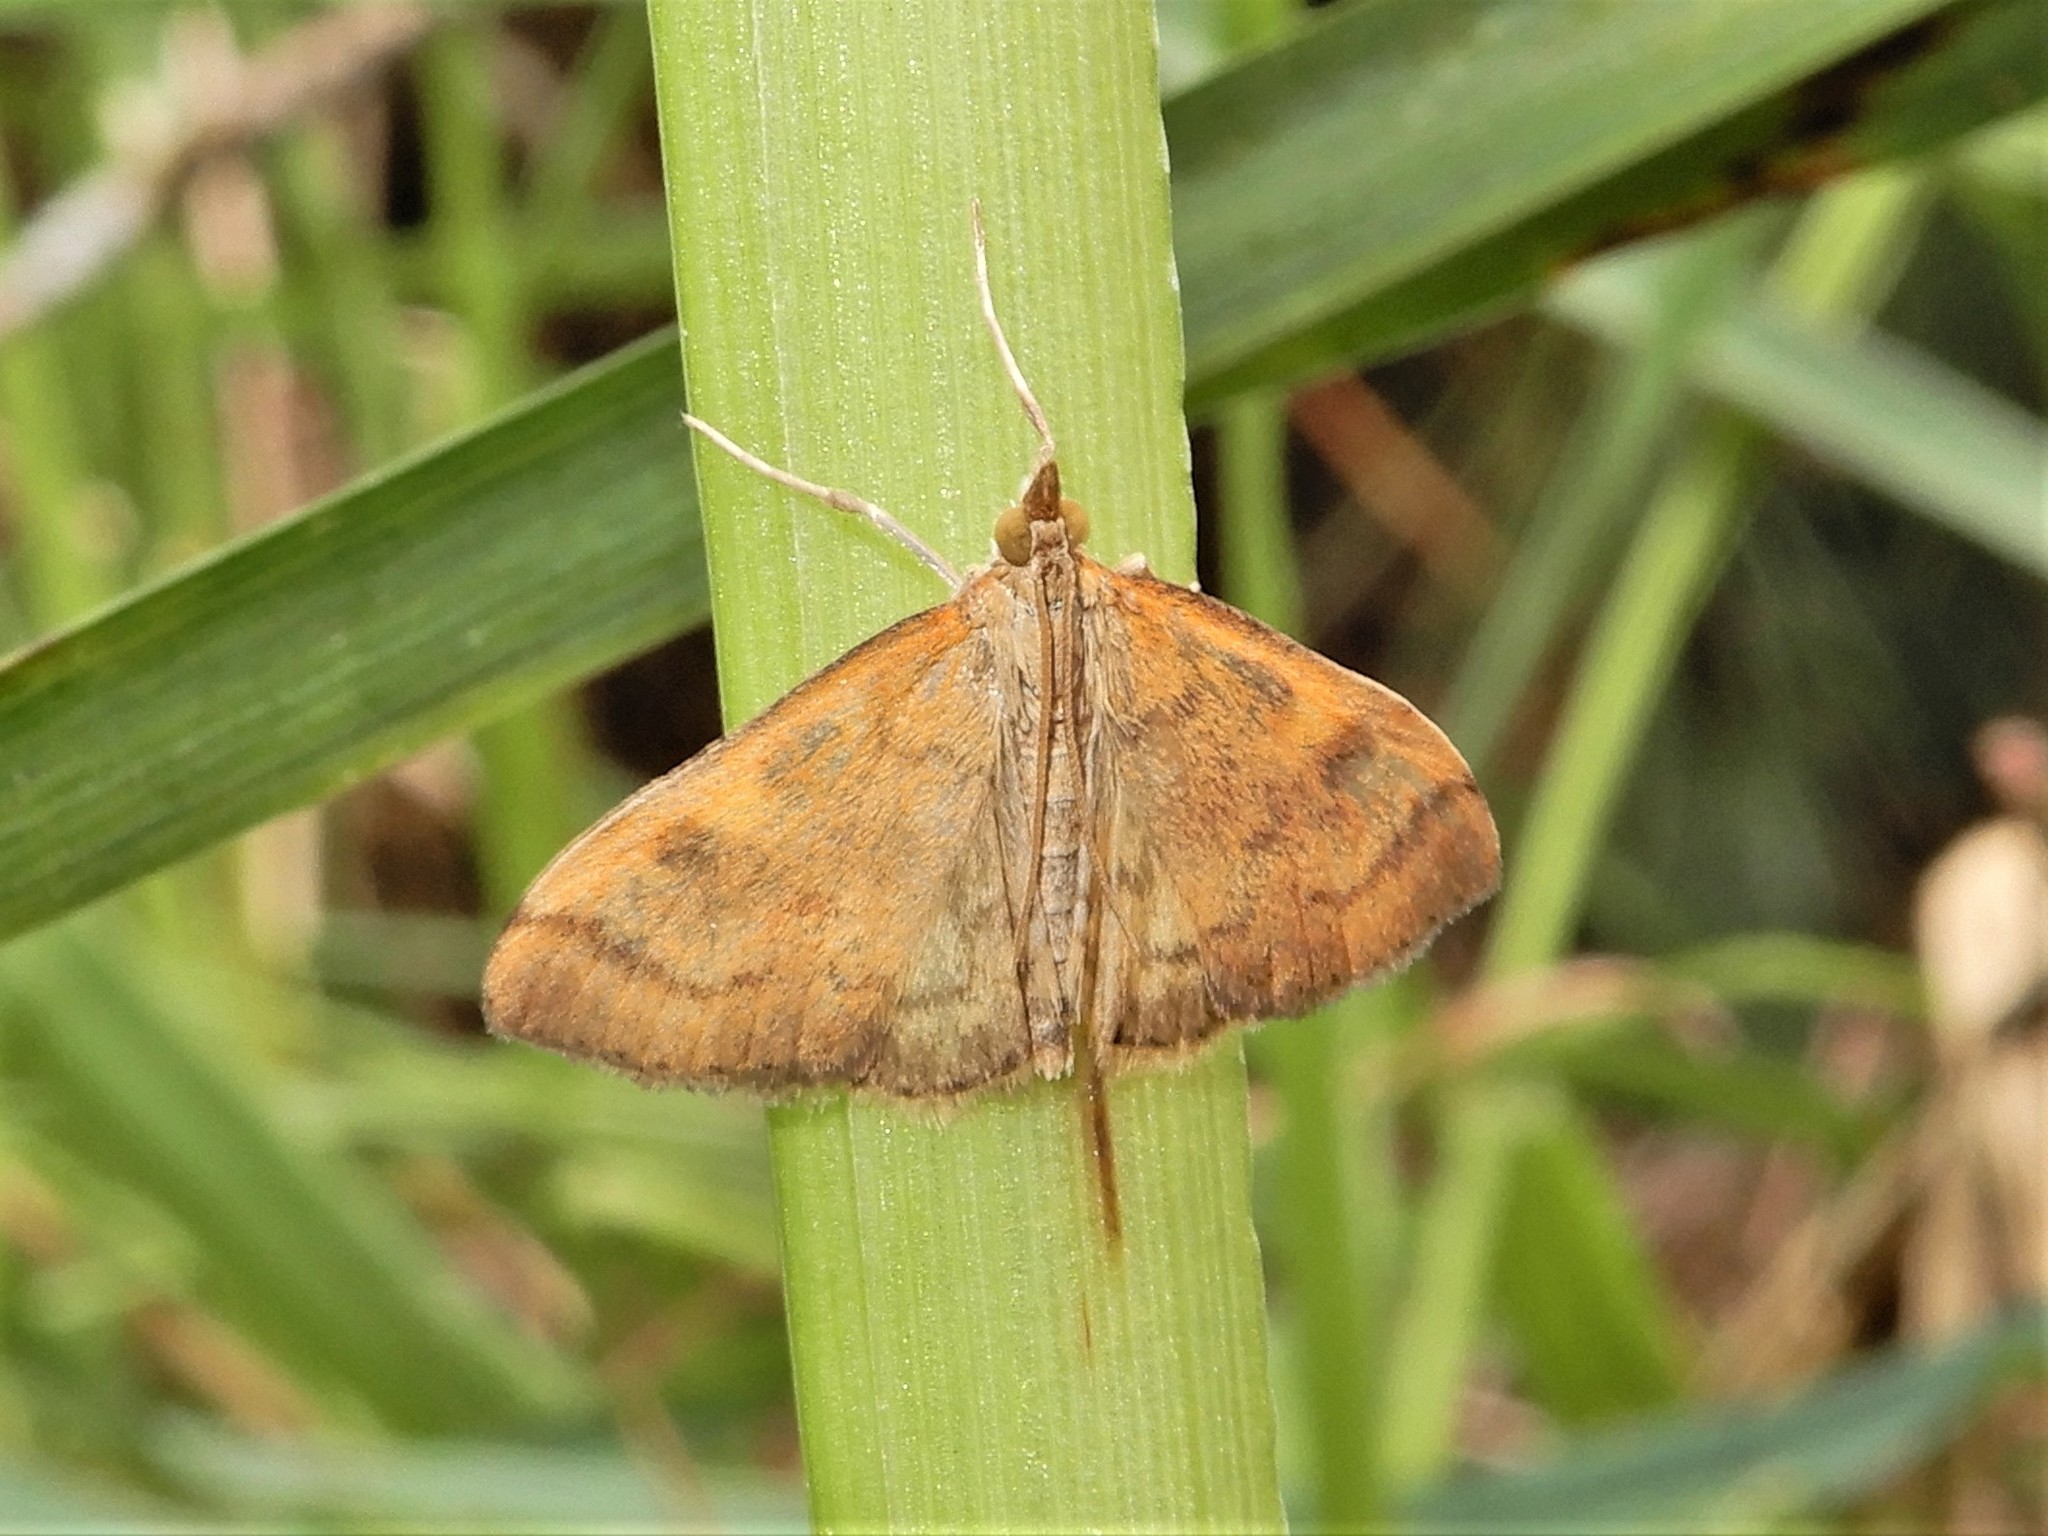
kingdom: Animalia
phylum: Arthropoda
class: Insecta
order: Lepidoptera
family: Crambidae
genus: Udea
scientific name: Udea Mnesictena flavidalis
